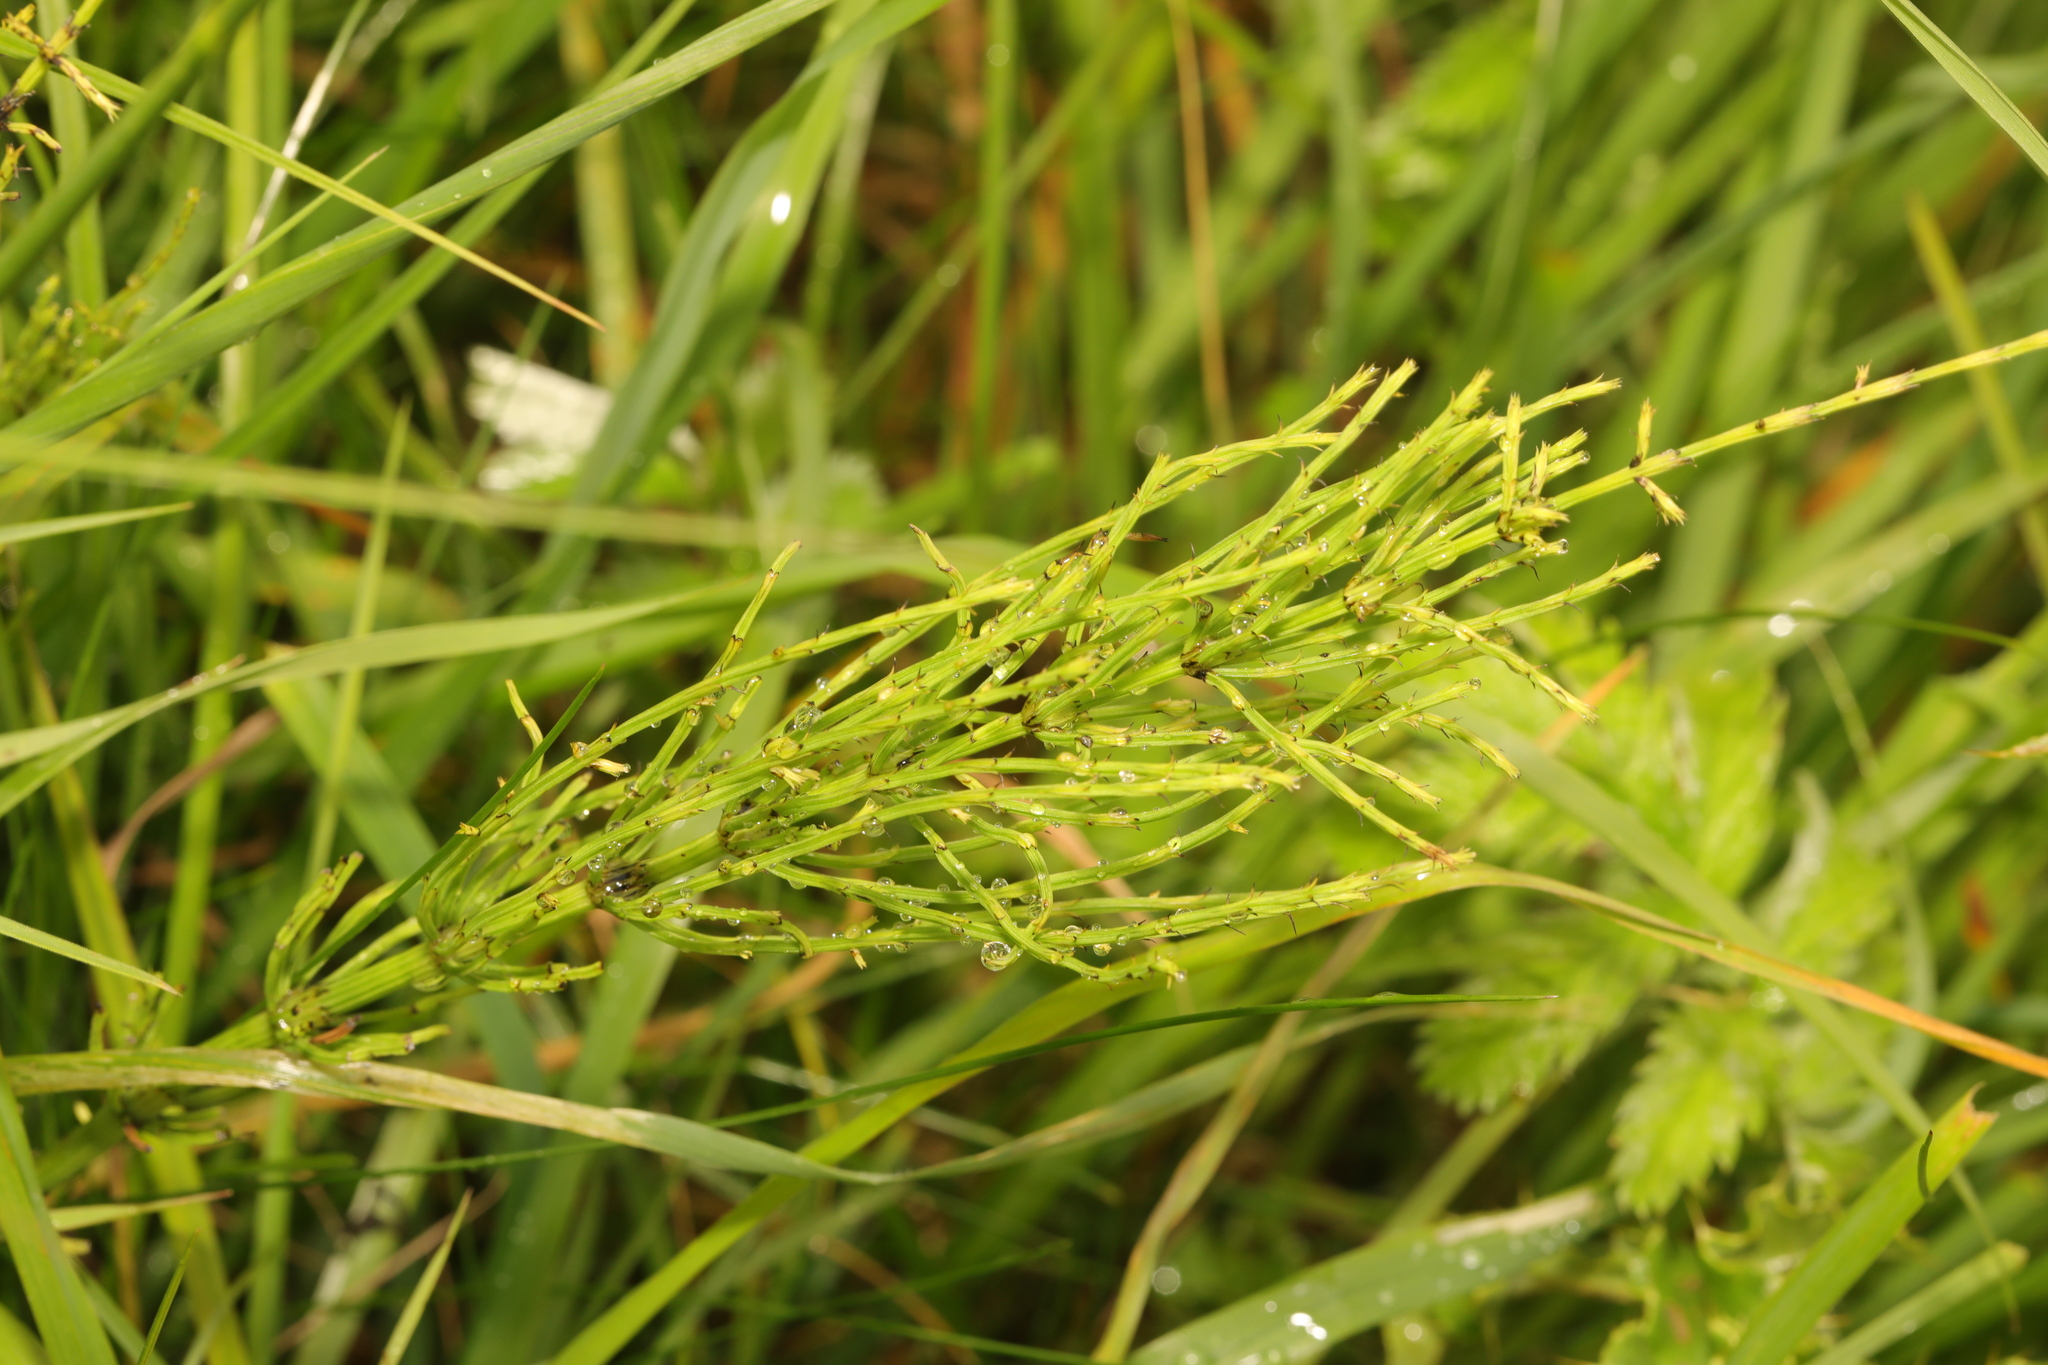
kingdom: Plantae
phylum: Tracheophyta
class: Polypodiopsida
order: Equisetales
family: Equisetaceae
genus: Equisetum
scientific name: Equisetum arvense
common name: Field horsetail
